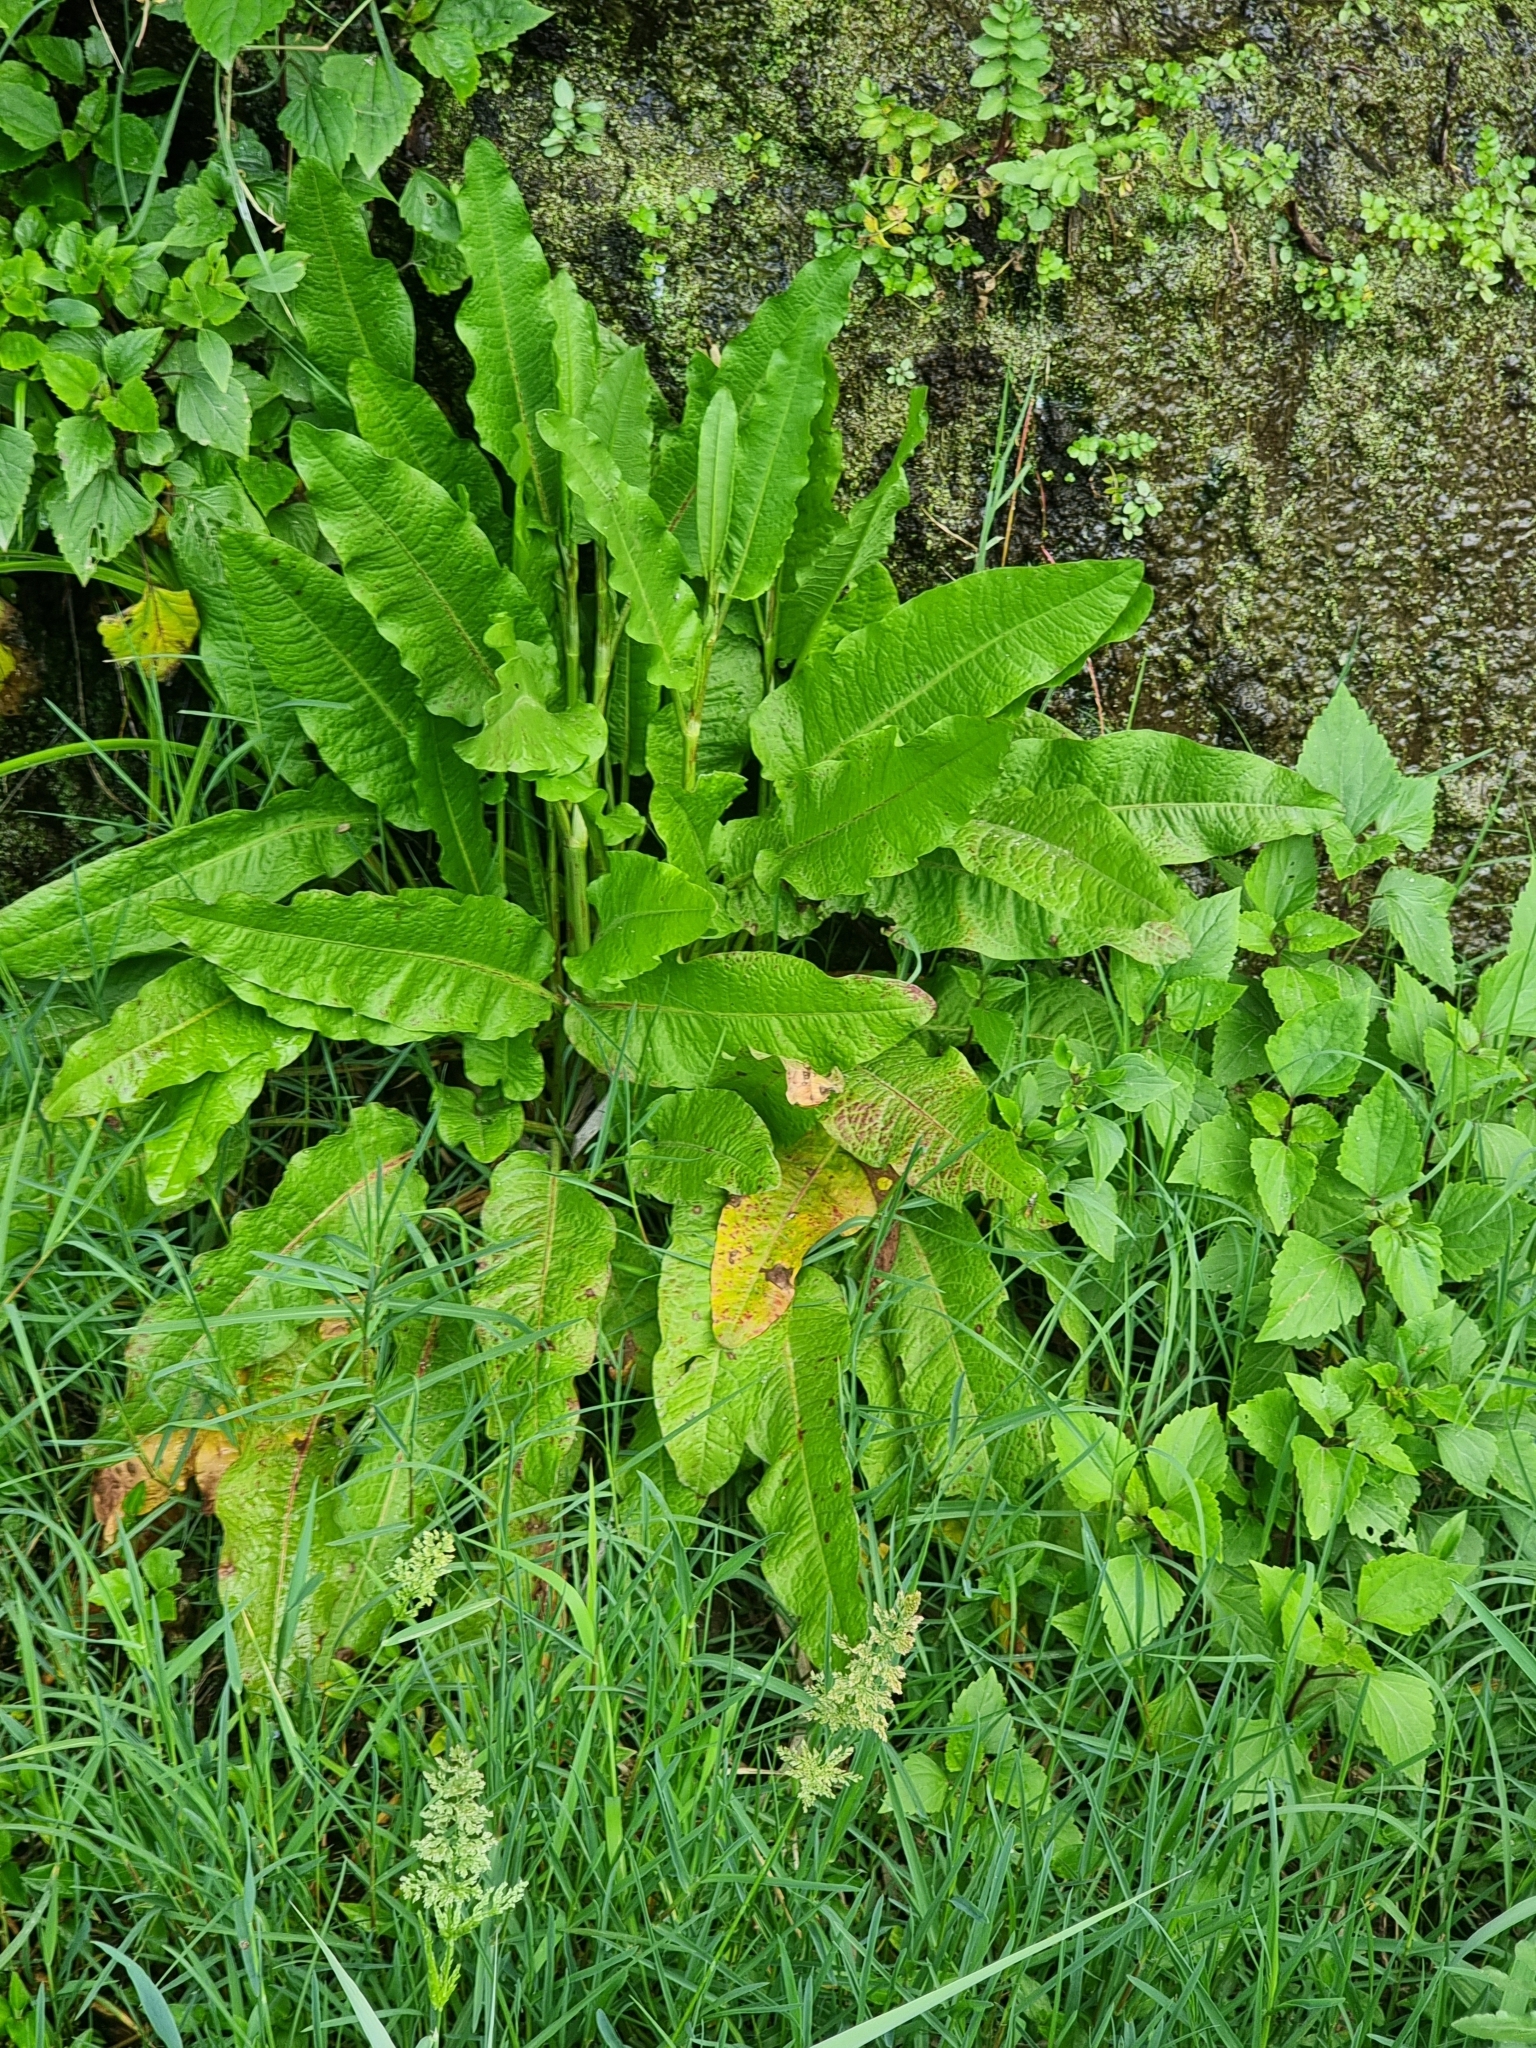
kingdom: Plantae
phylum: Tracheophyta
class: Magnoliopsida
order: Caryophyllales
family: Polygonaceae
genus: Rumex
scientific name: Rumex obtusifolius
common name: Bitter dock
